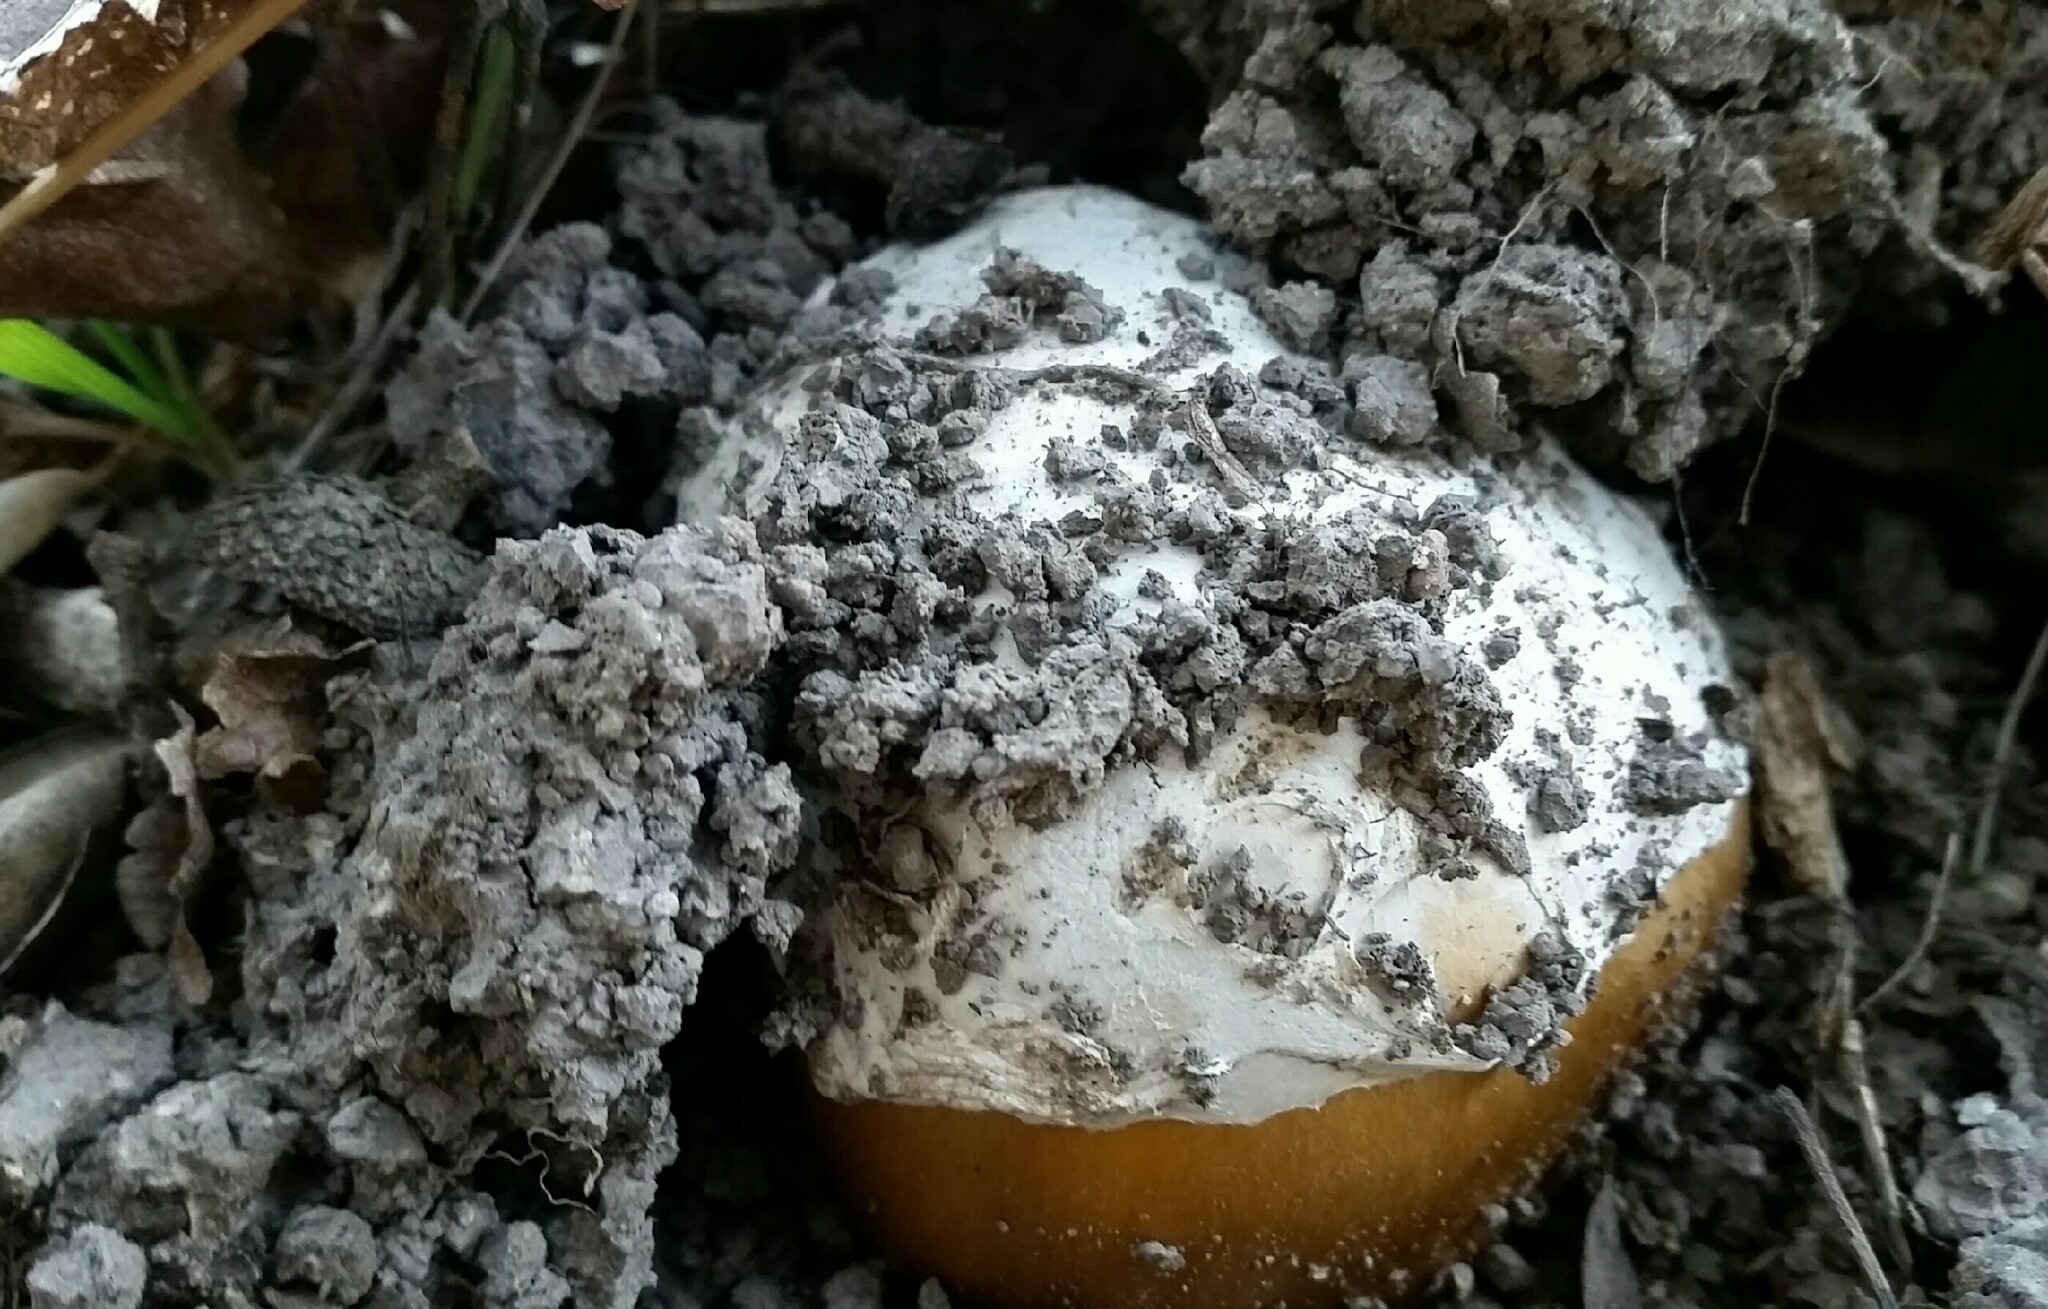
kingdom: Fungi
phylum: Basidiomycota
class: Agaricomycetes
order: Agaricales
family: Amanitaceae
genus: Amanita
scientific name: Amanita calyptroderma
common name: Coccora
